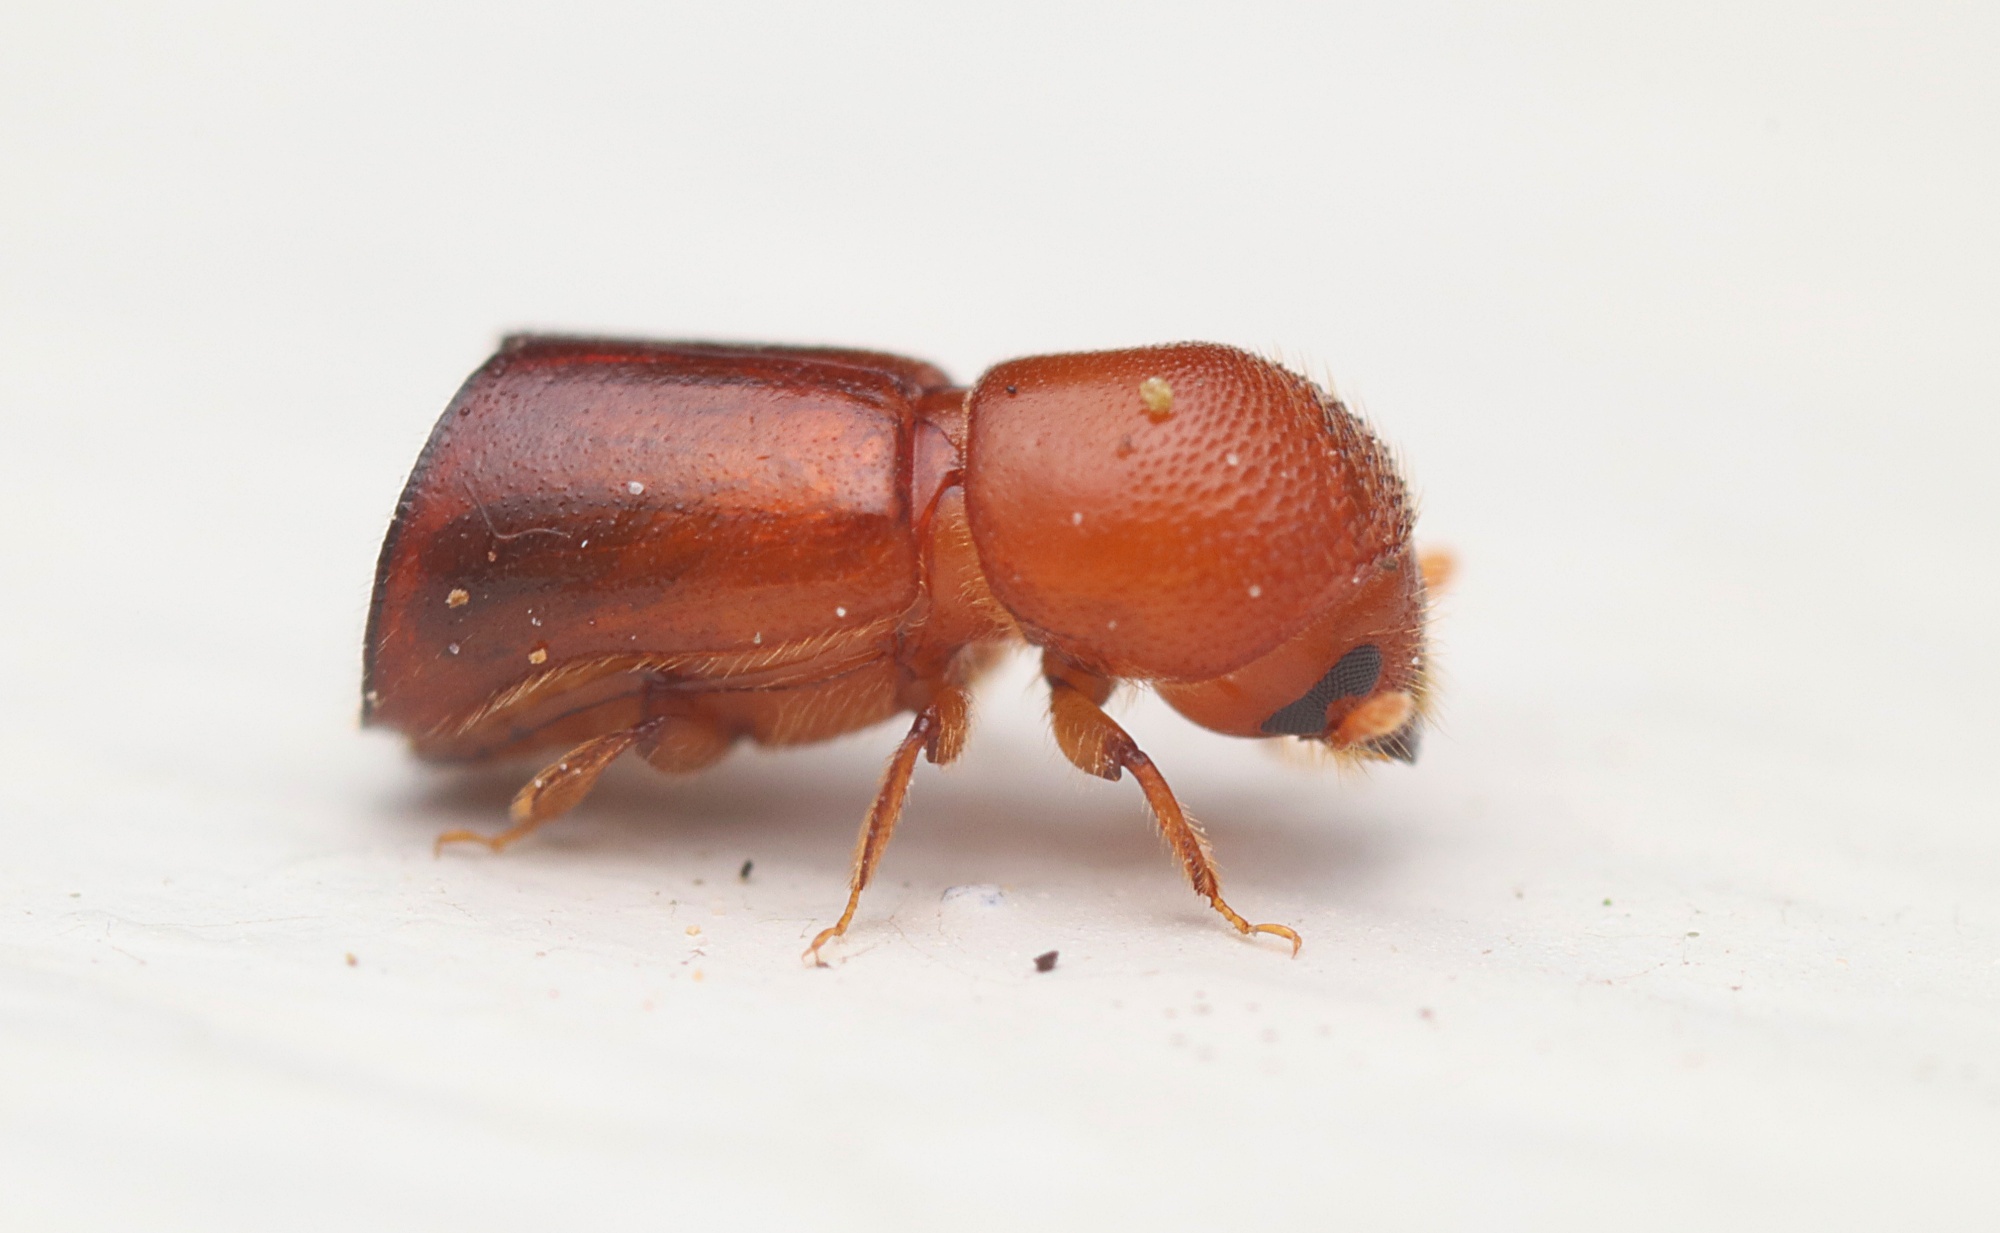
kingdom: Animalia
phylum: Arthropoda
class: Insecta
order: Coleoptera
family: Curculionidae
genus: Amasa
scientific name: Amasa truncatus
